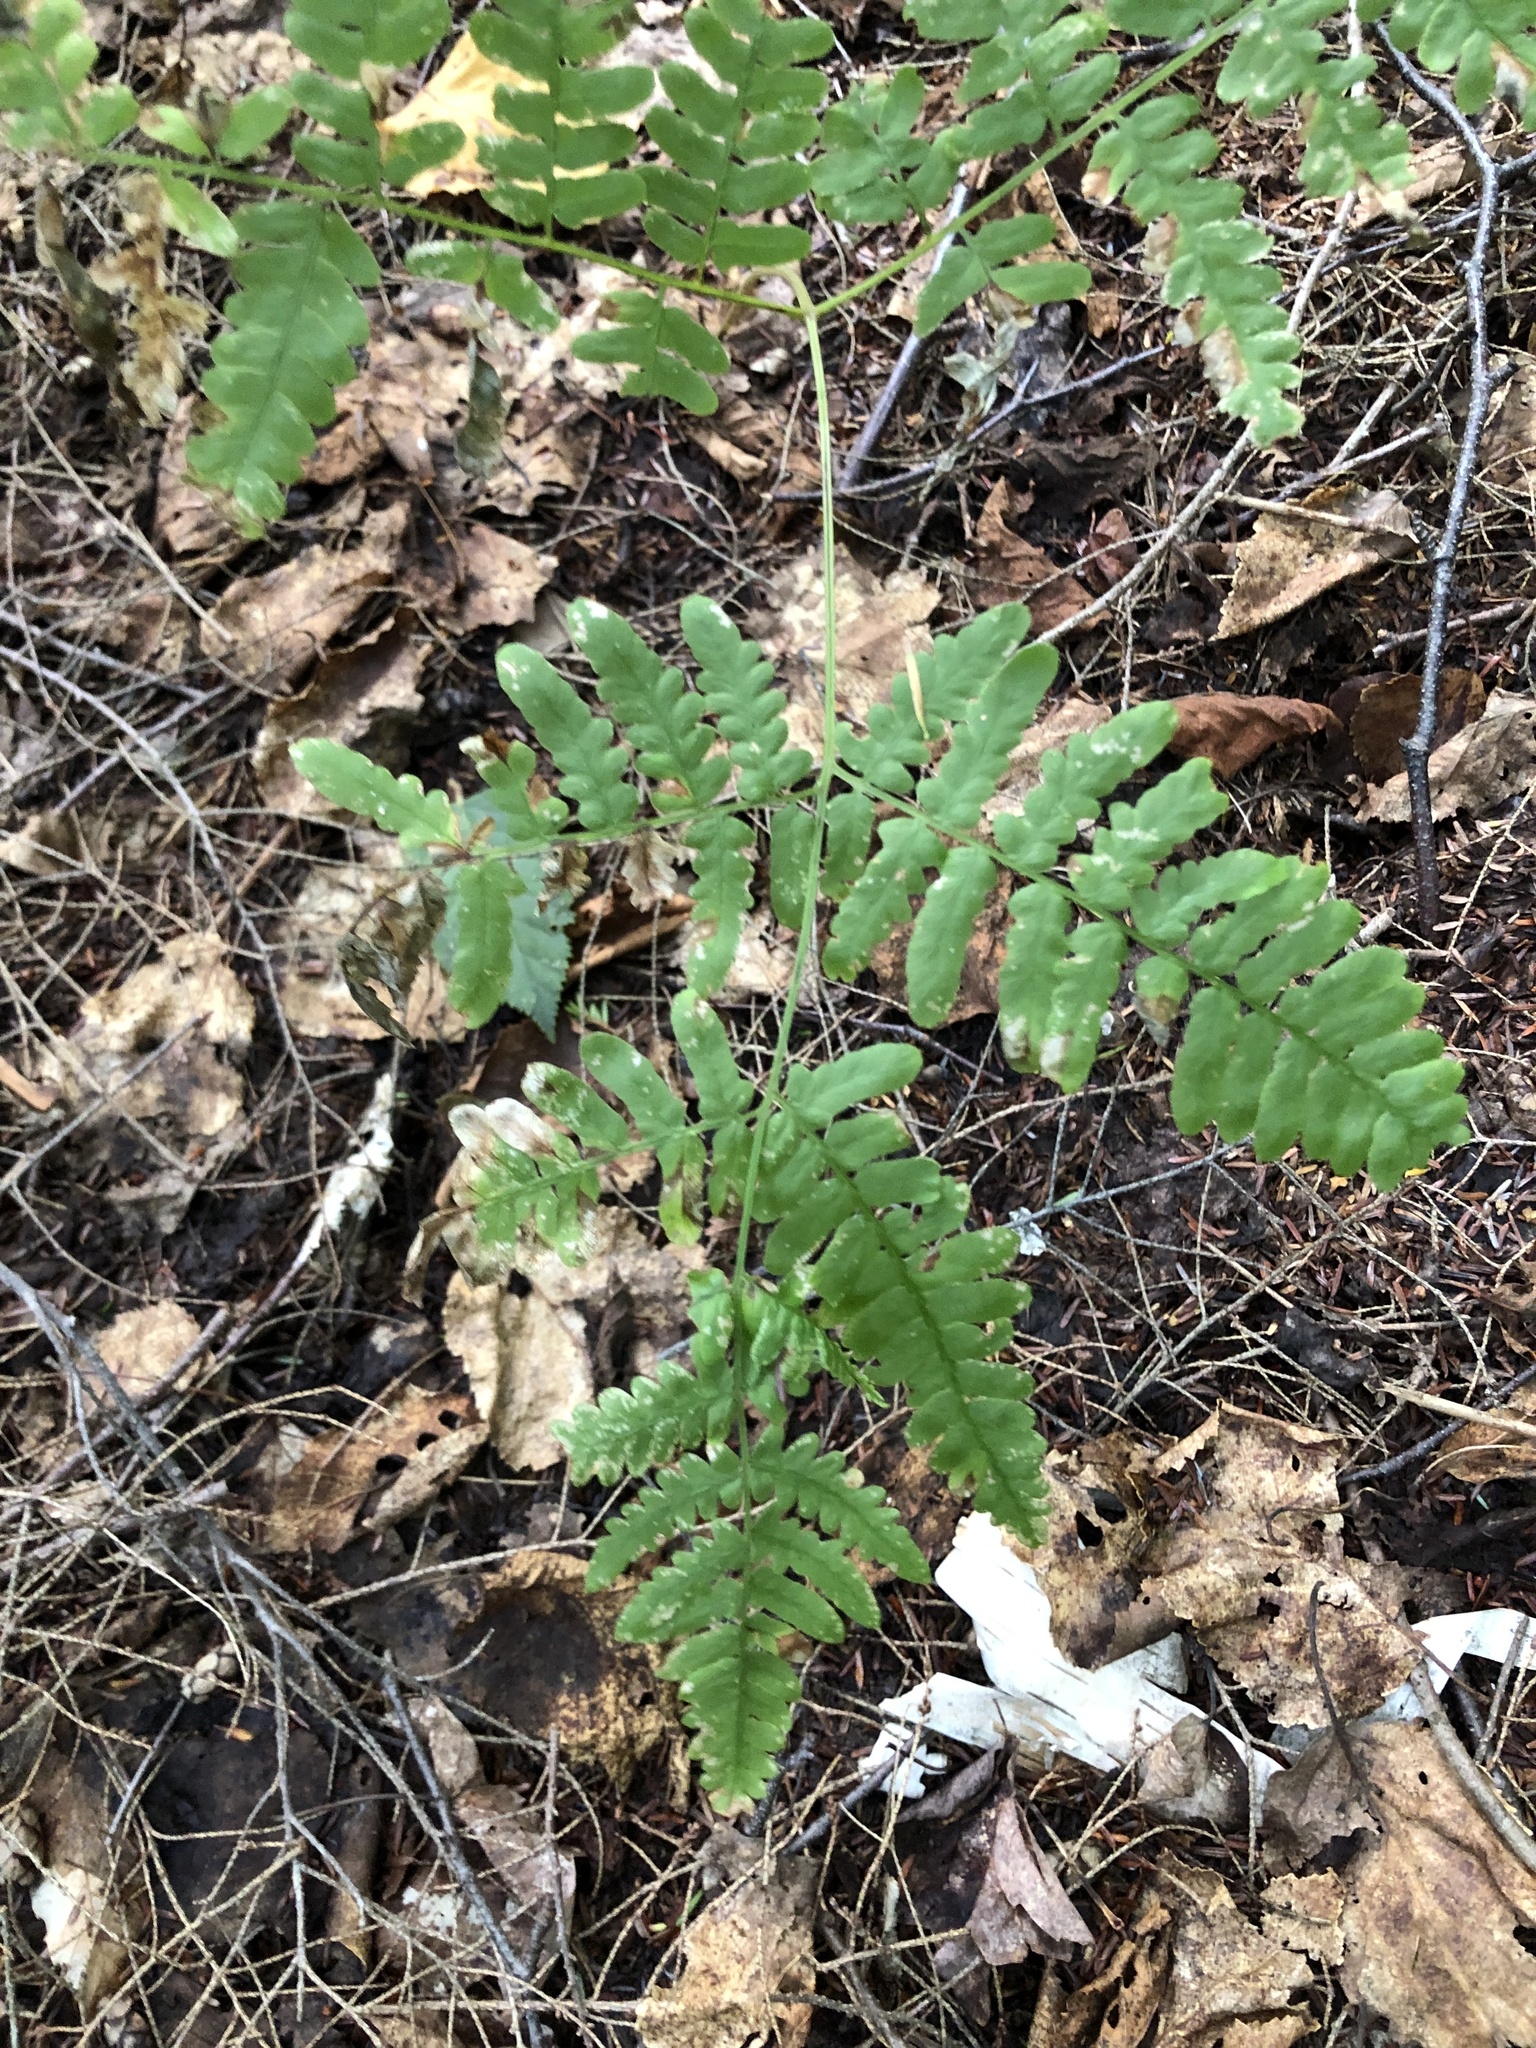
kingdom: Plantae
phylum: Tracheophyta
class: Polypodiopsida
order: Polypodiales
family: Dennstaedtiaceae
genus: Pteridium
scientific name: Pteridium aquilinum
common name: Bracken
